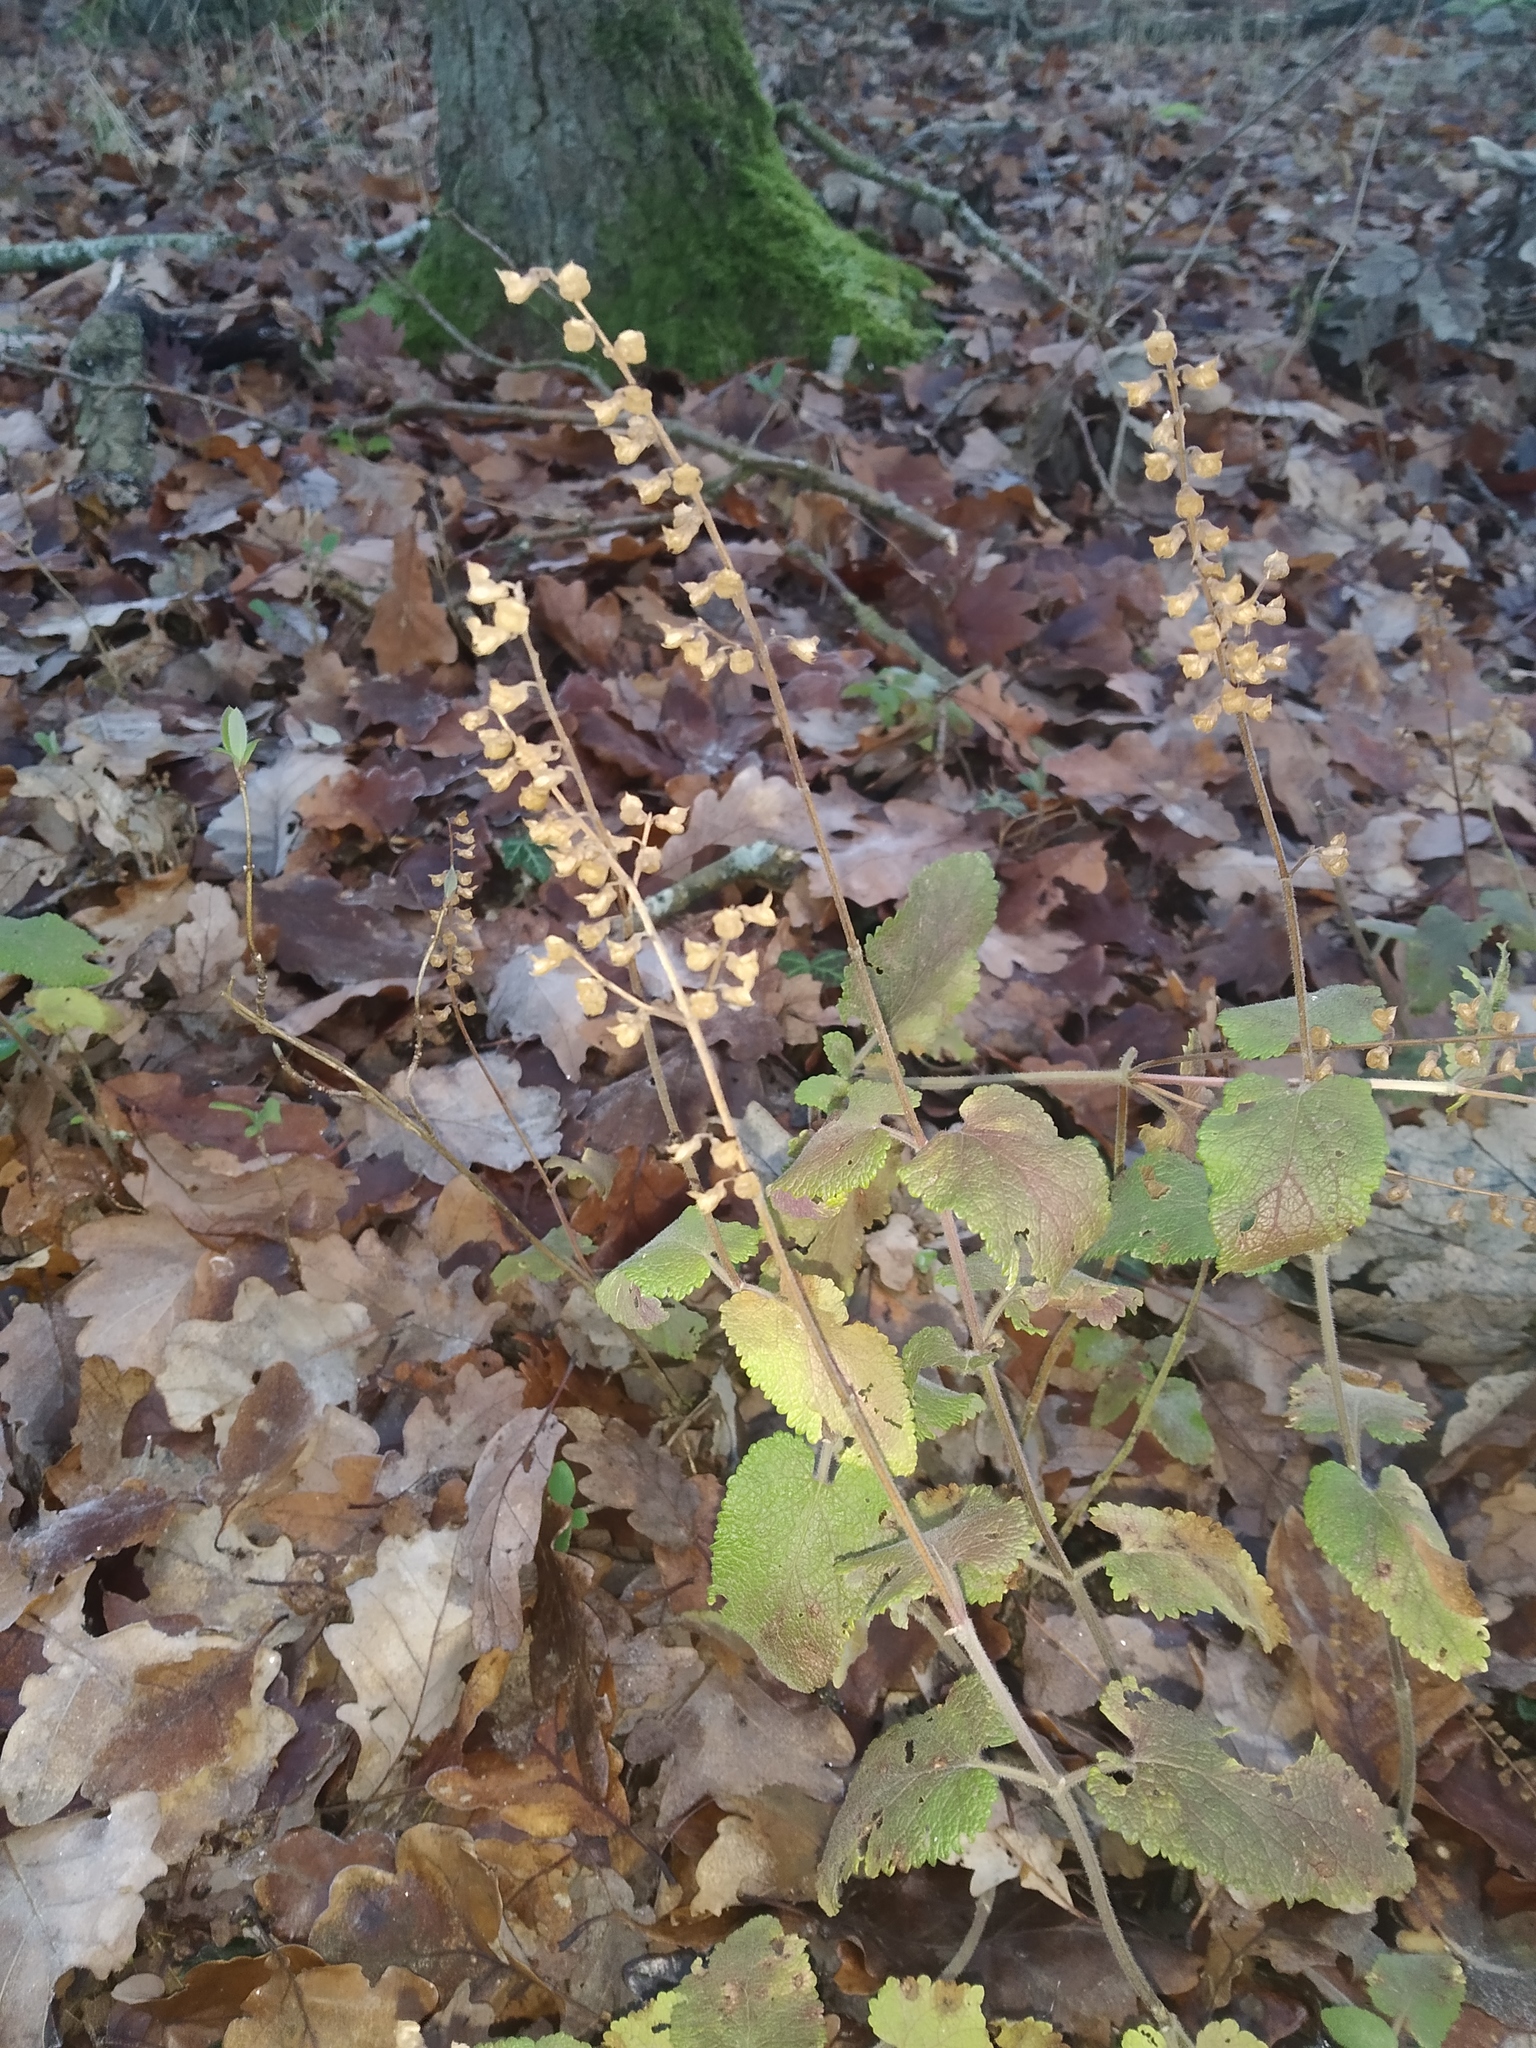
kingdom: Plantae
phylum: Tracheophyta
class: Magnoliopsida
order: Lamiales
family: Lamiaceae
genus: Teucrium
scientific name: Teucrium scorodonia
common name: Woodland germander
